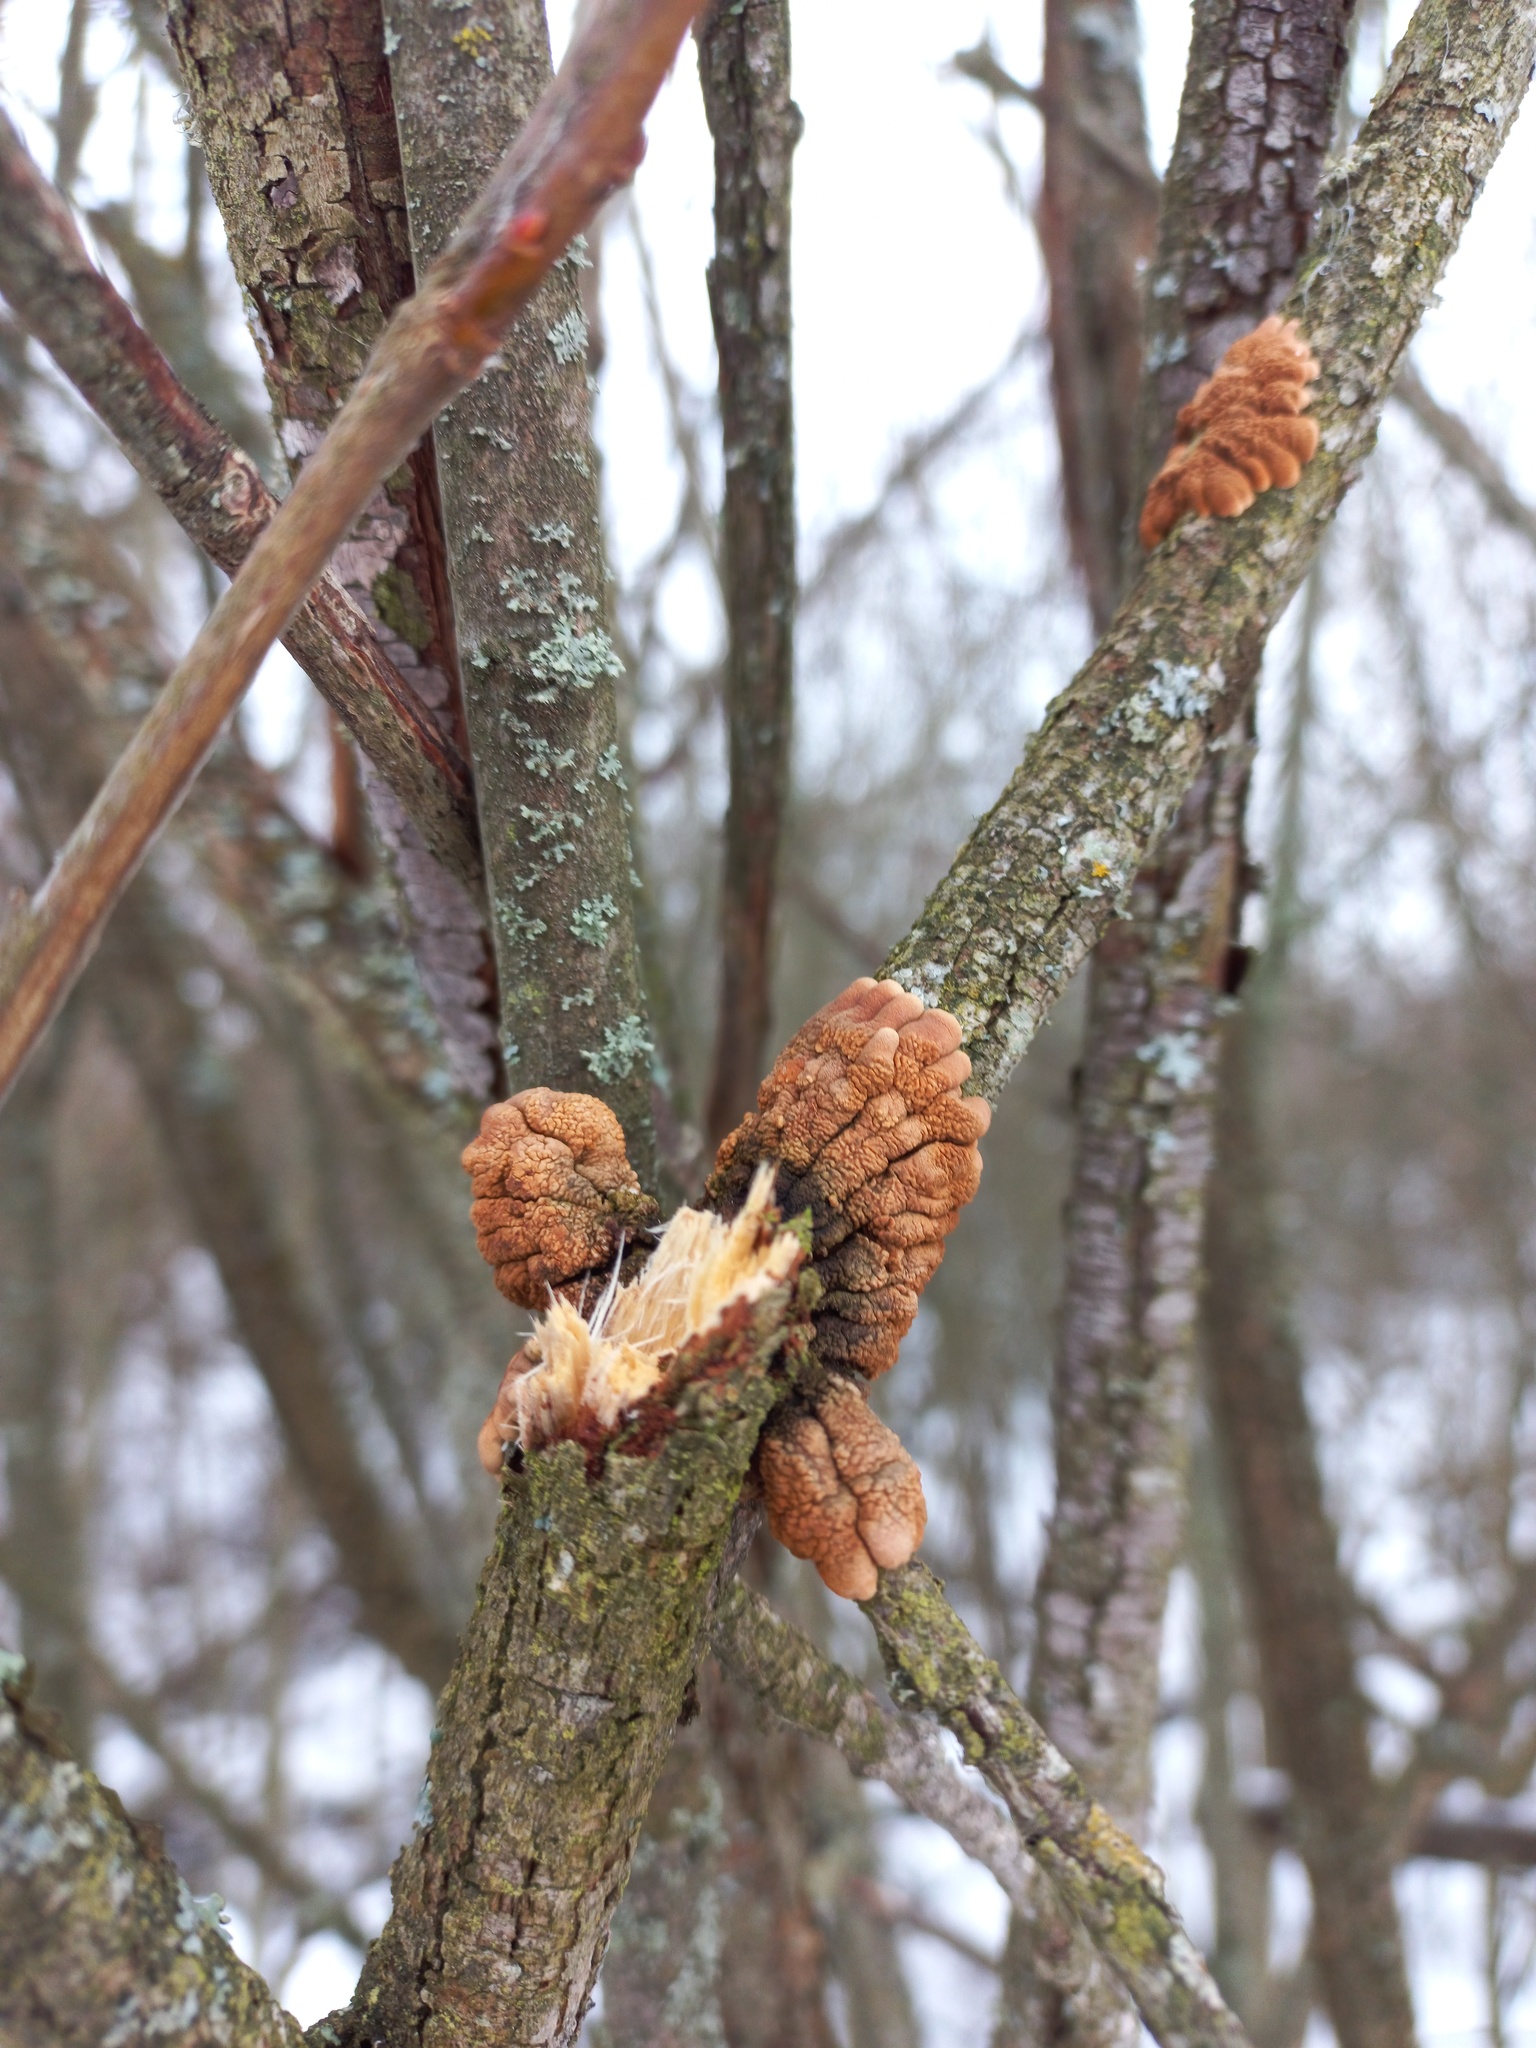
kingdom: Fungi
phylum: Ascomycota
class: Sordariomycetes
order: Hypocreales
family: Hypocreaceae
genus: Hypocreopsis
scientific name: Hypocreopsis lichenoides
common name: Willow gloves
